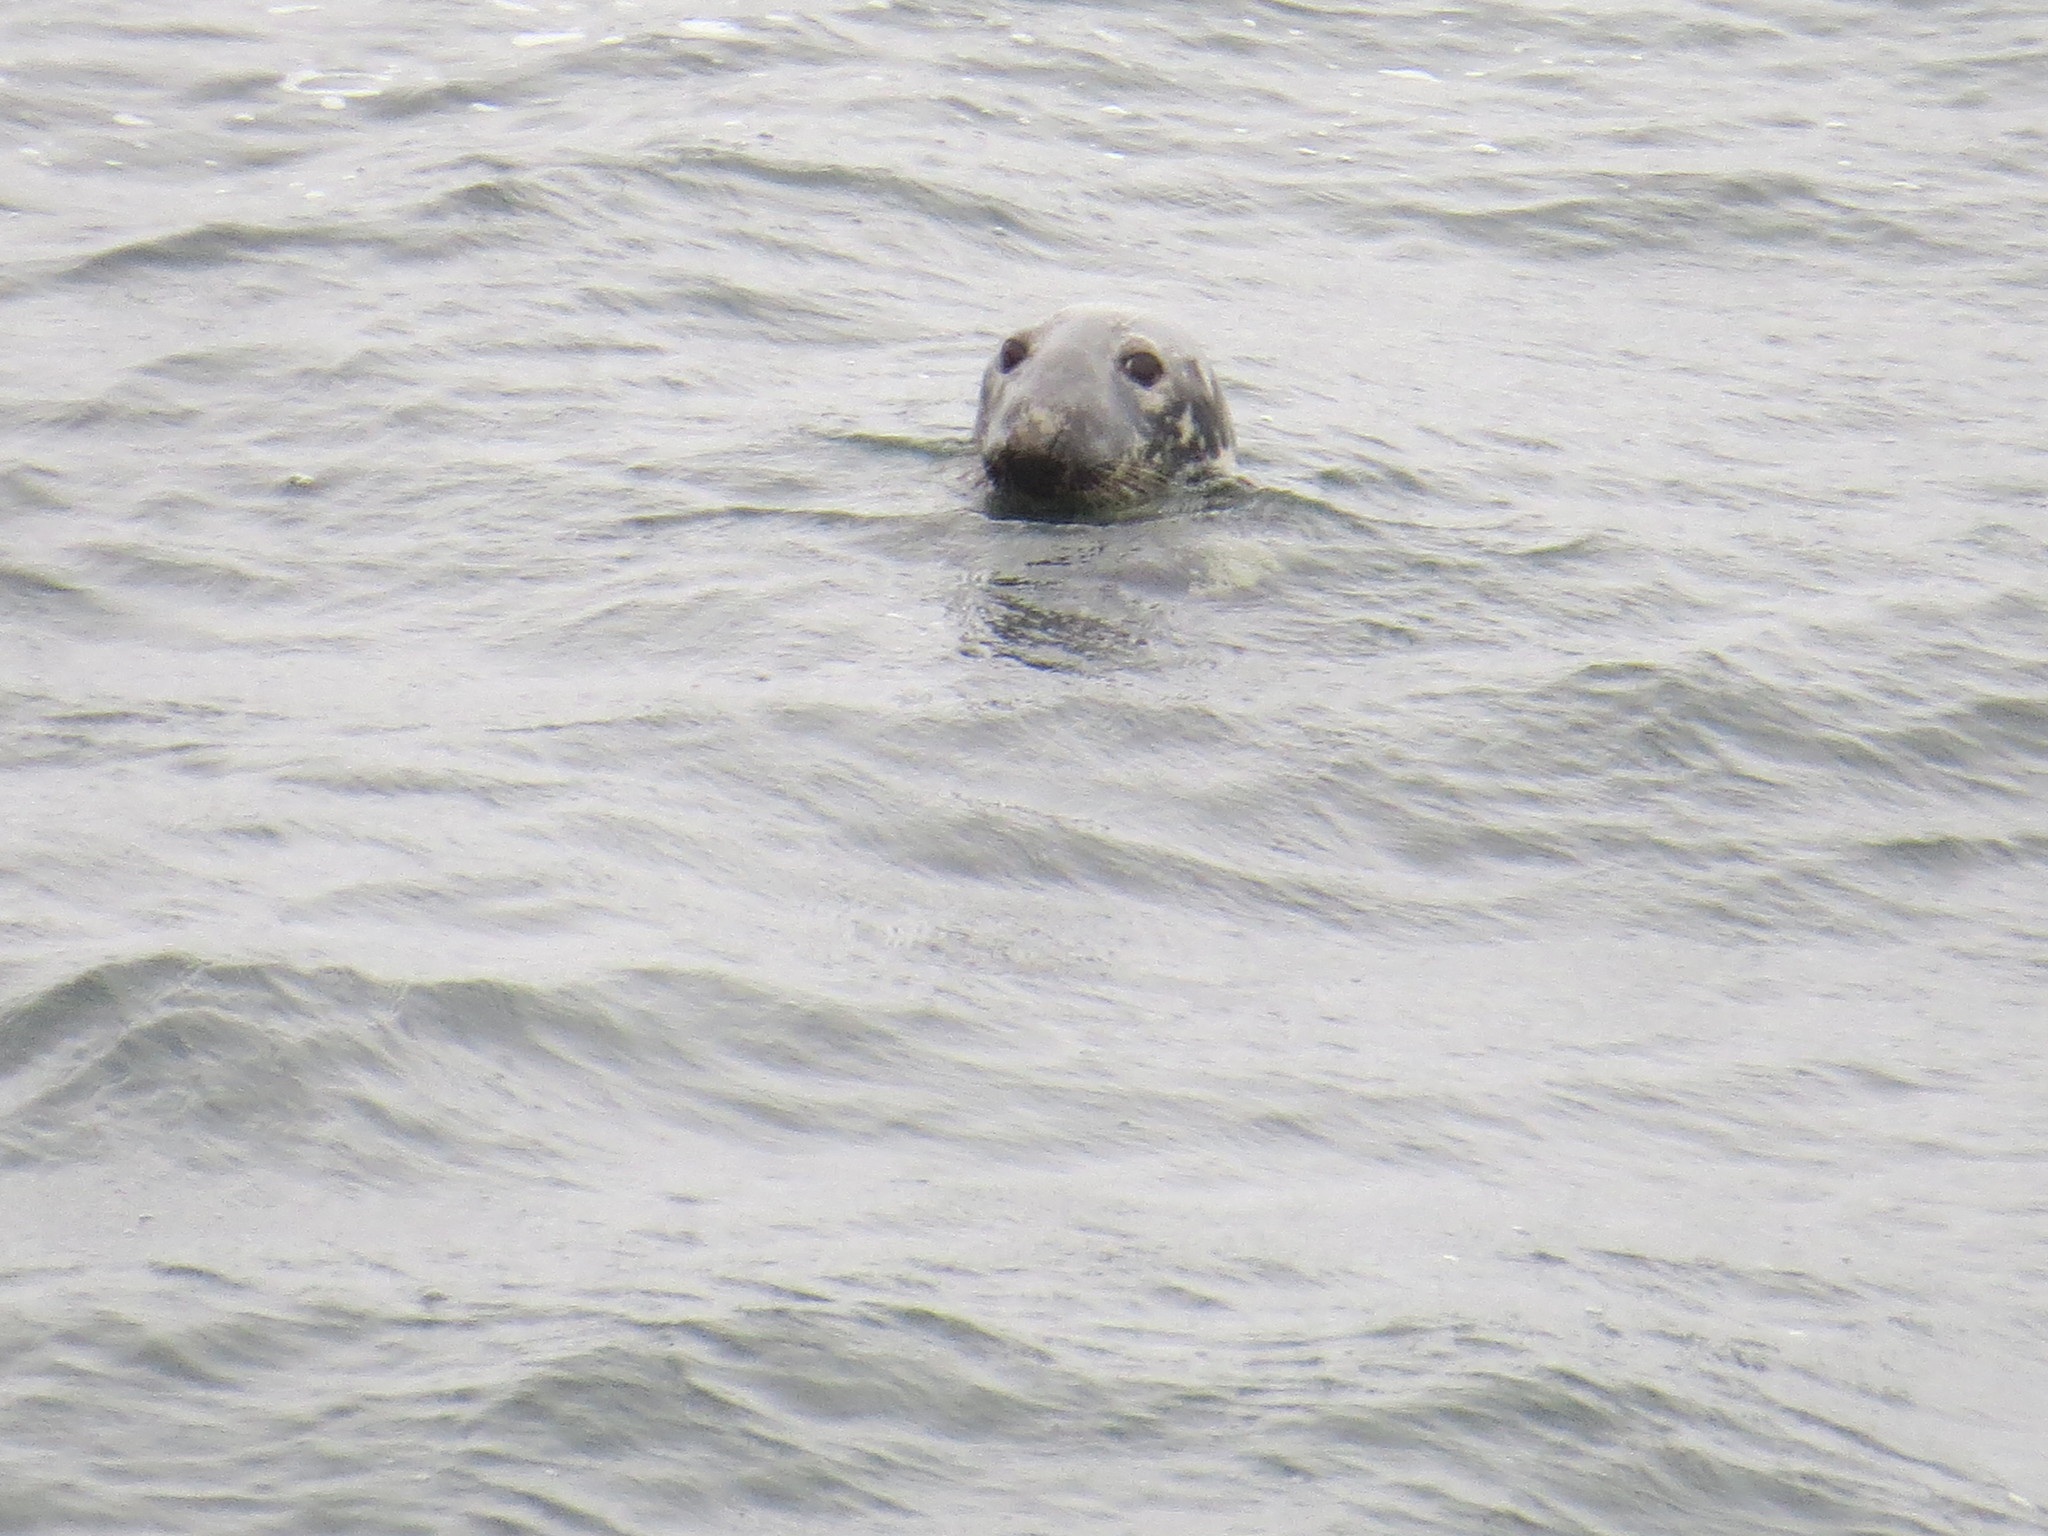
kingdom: Animalia
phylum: Chordata
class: Mammalia
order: Carnivora
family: Phocidae
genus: Halichoerus
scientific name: Halichoerus grypus
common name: Grey seal
